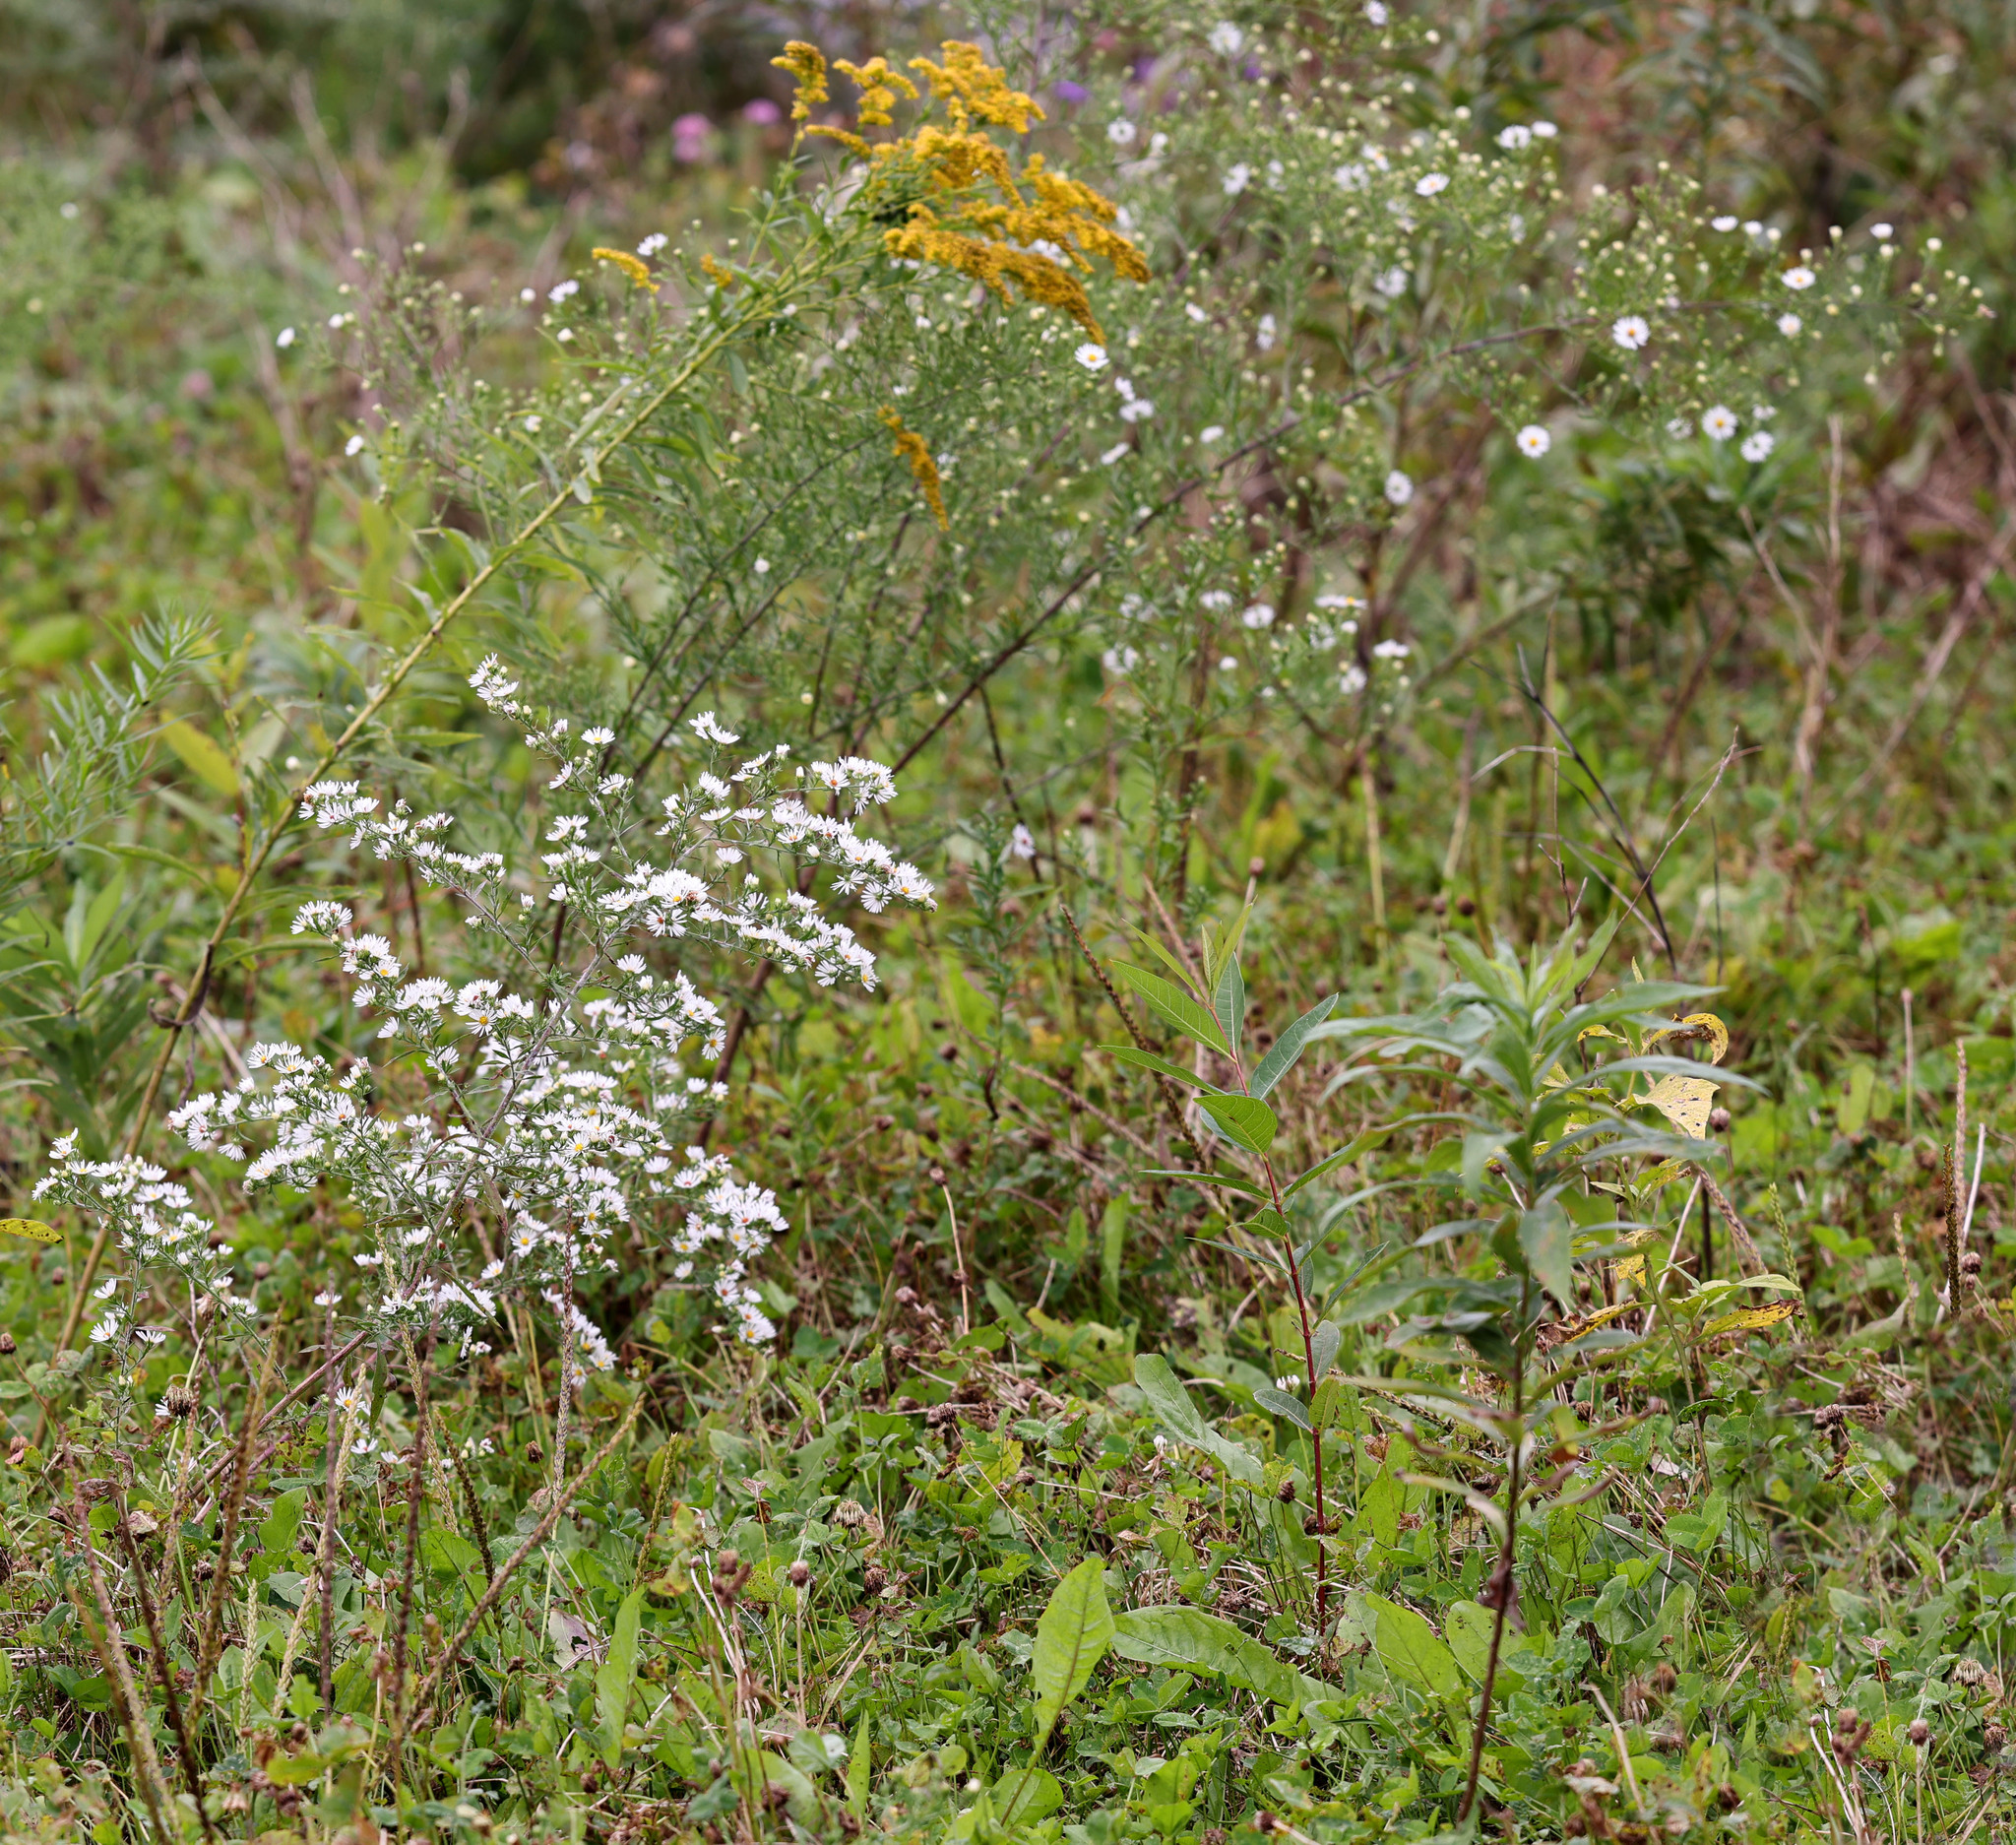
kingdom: Plantae
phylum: Tracheophyta
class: Magnoliopsida
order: Asterales
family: Asteraceae
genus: Symphyotrichum
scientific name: Symphyotrichum pilosum
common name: Awl aster
